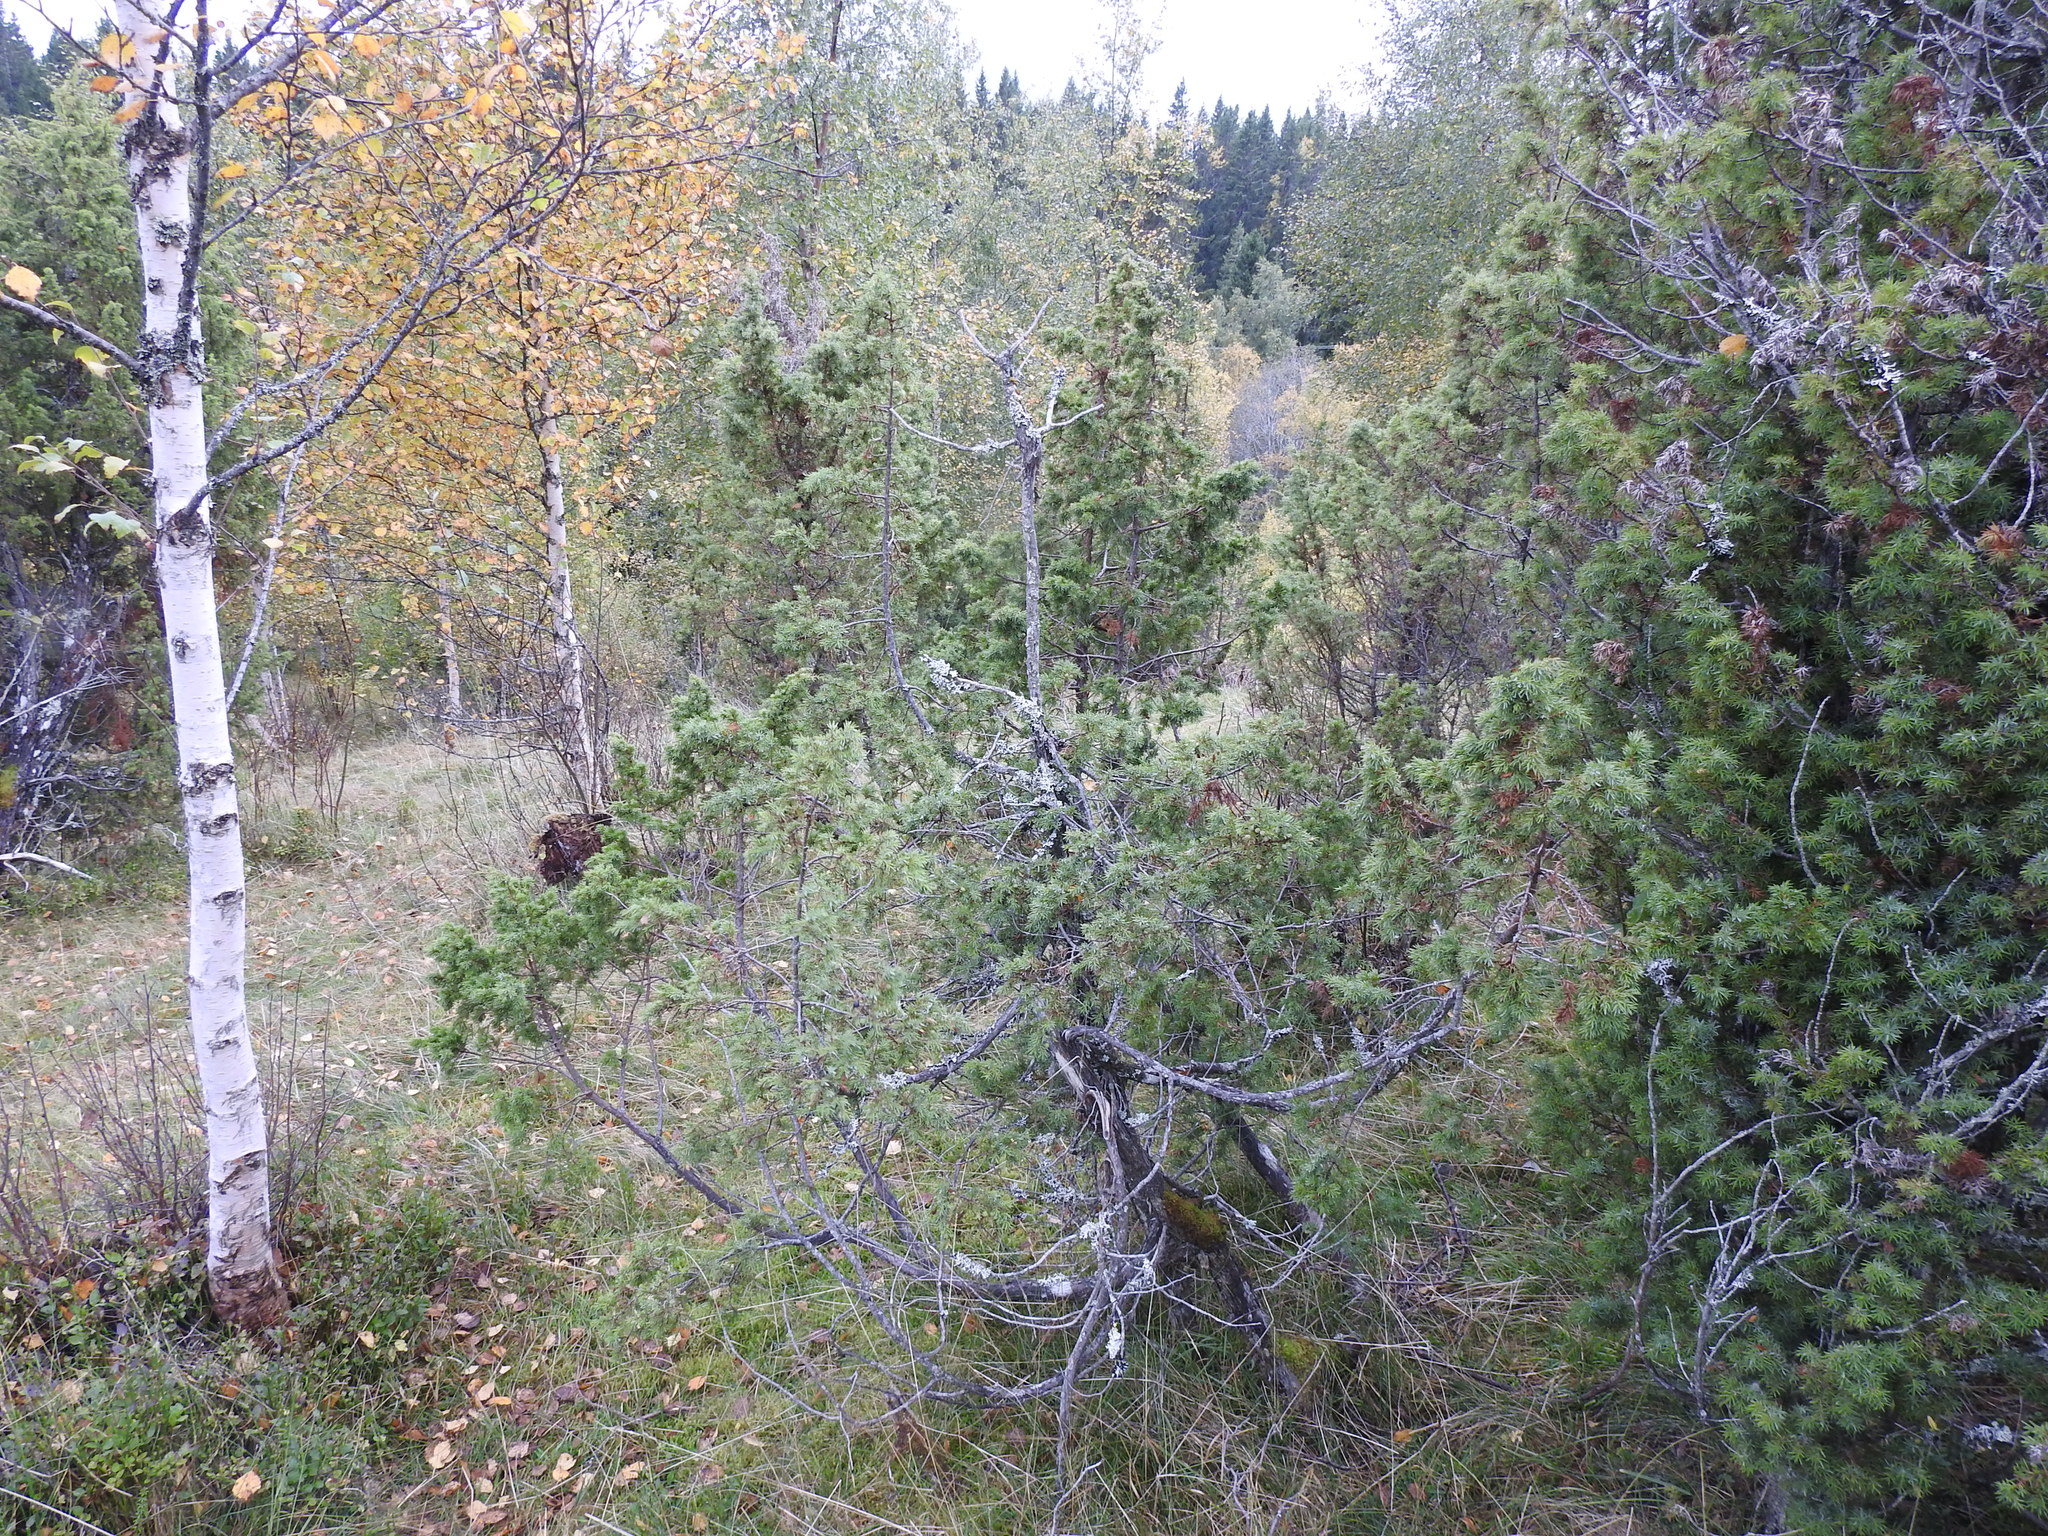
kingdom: Plantae
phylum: Tracheophyta
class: Pinopsida
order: Pinales
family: Cupressaceae
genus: Juniperus
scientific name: Juniperus communis
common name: Common juniper
